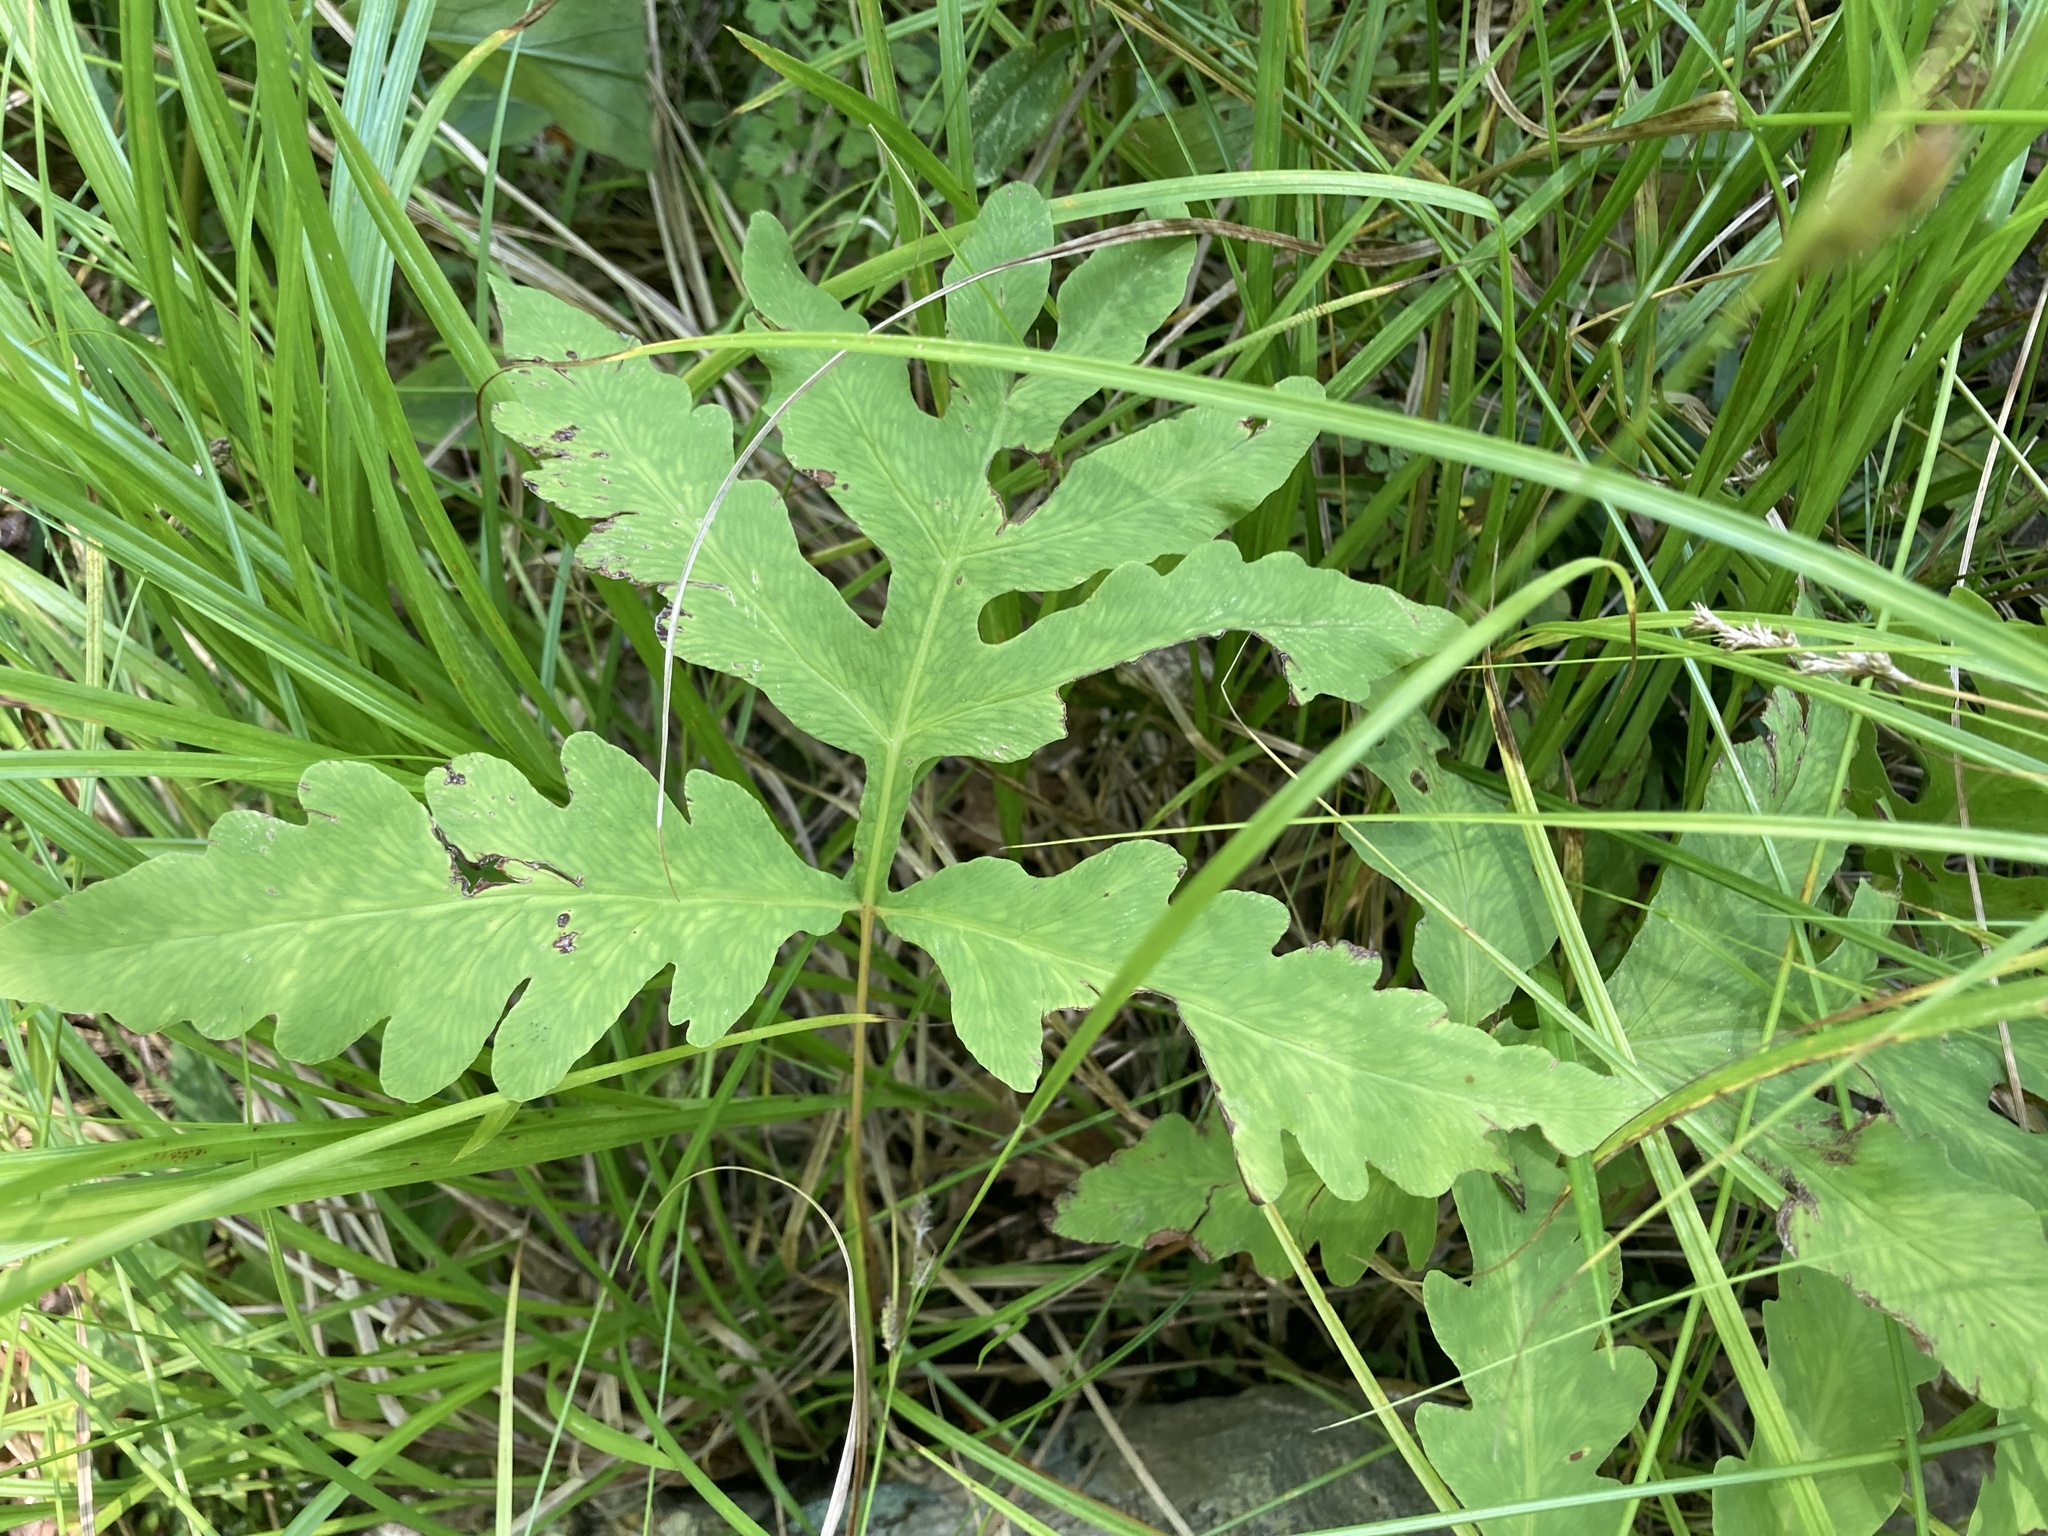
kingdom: Plantae
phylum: Tracheophyta
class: Polypodiopsida
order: Polypodiales
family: Onocleaceae
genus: Onoclea
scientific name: Onoclea sensibilis
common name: Sensitive fern
